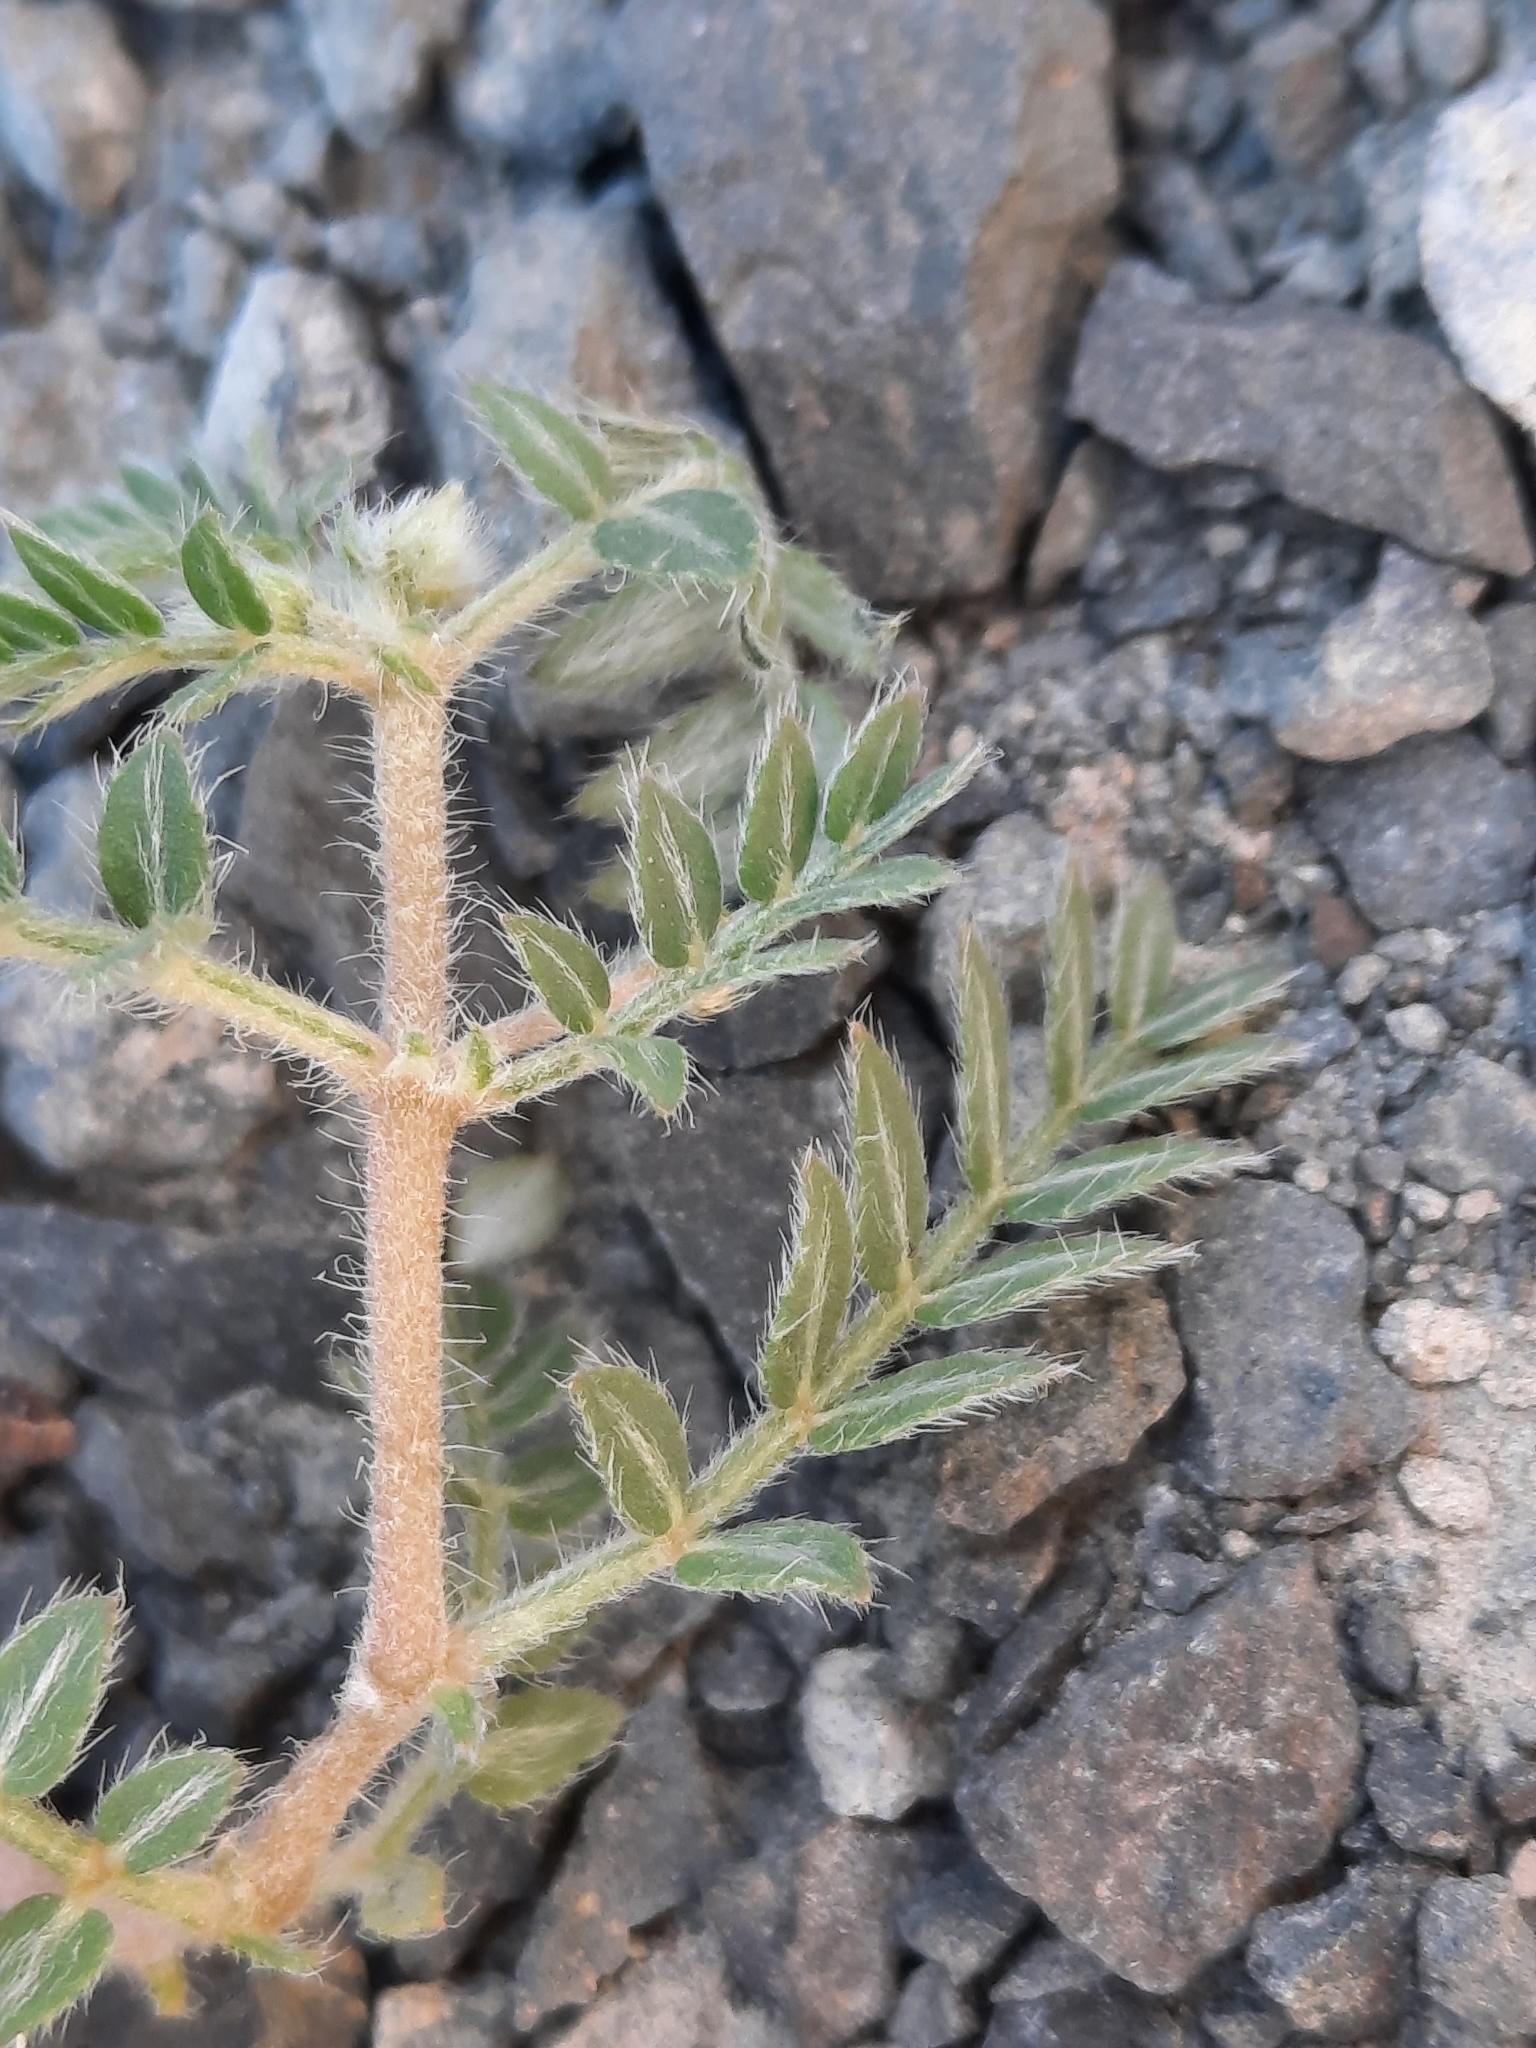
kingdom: Plantae
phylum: Tracheophyta
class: Magnoliopsida
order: Zygophyllales
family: Zygophyllaceae
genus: Tribulus
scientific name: Tribulus terrestris
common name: Puncturevine
